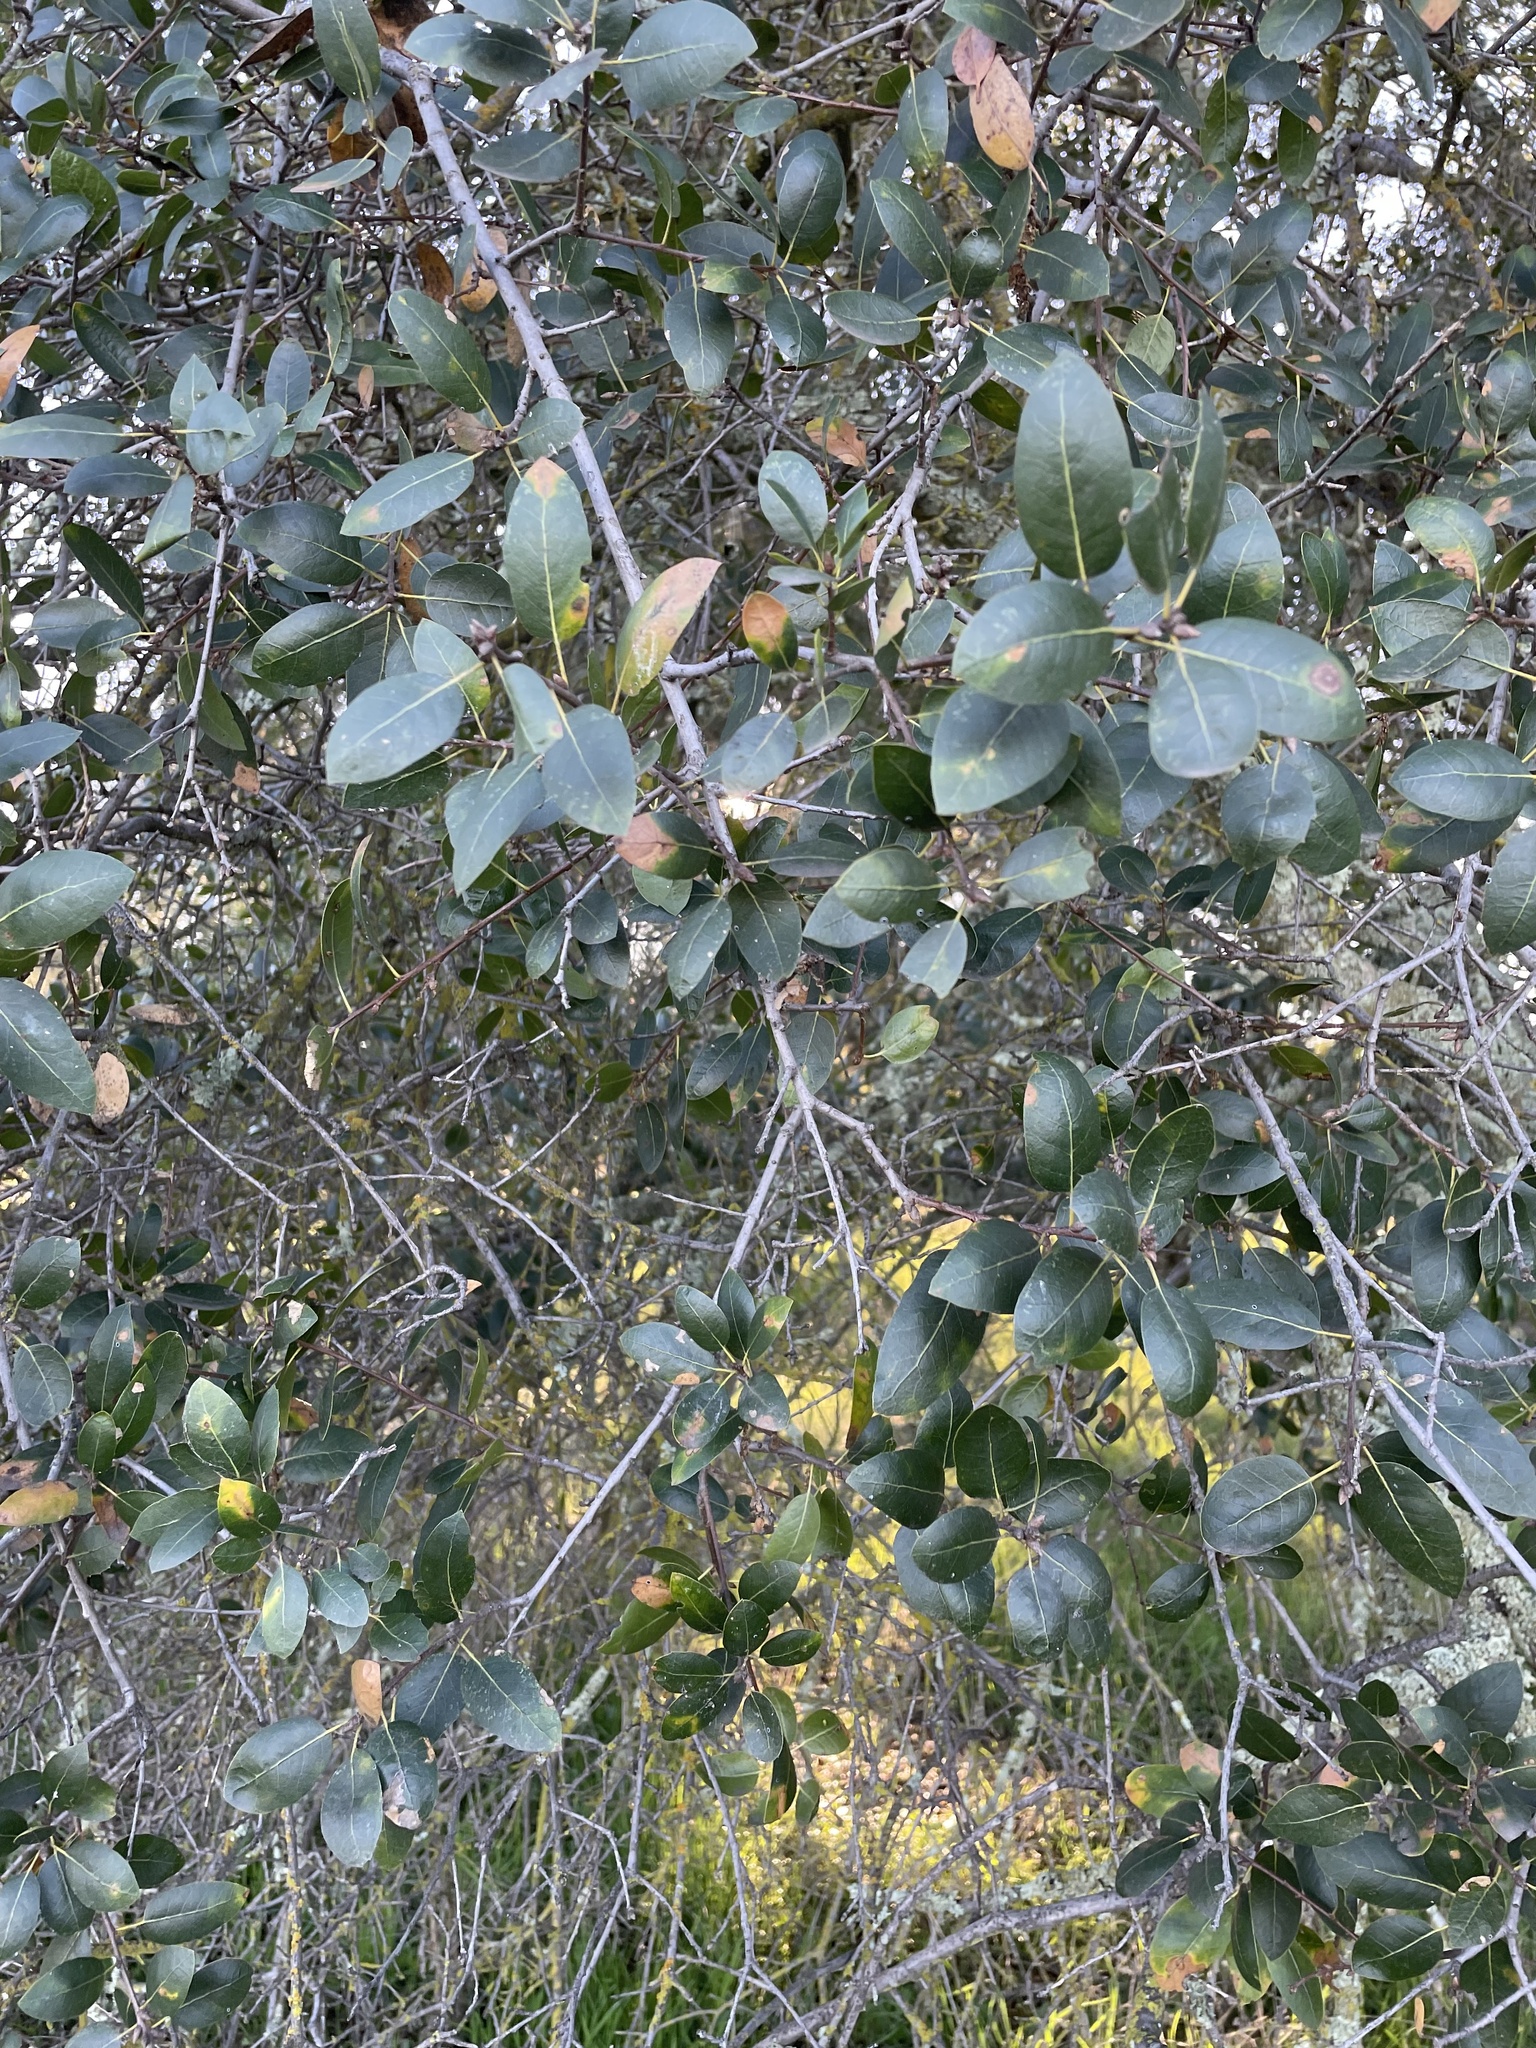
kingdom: Plantae
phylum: Tracheophyta
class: Magnoliopsida
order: Fagales
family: Fagaceae
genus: Quercus
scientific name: Quercus wislizeni
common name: Interior live oak
